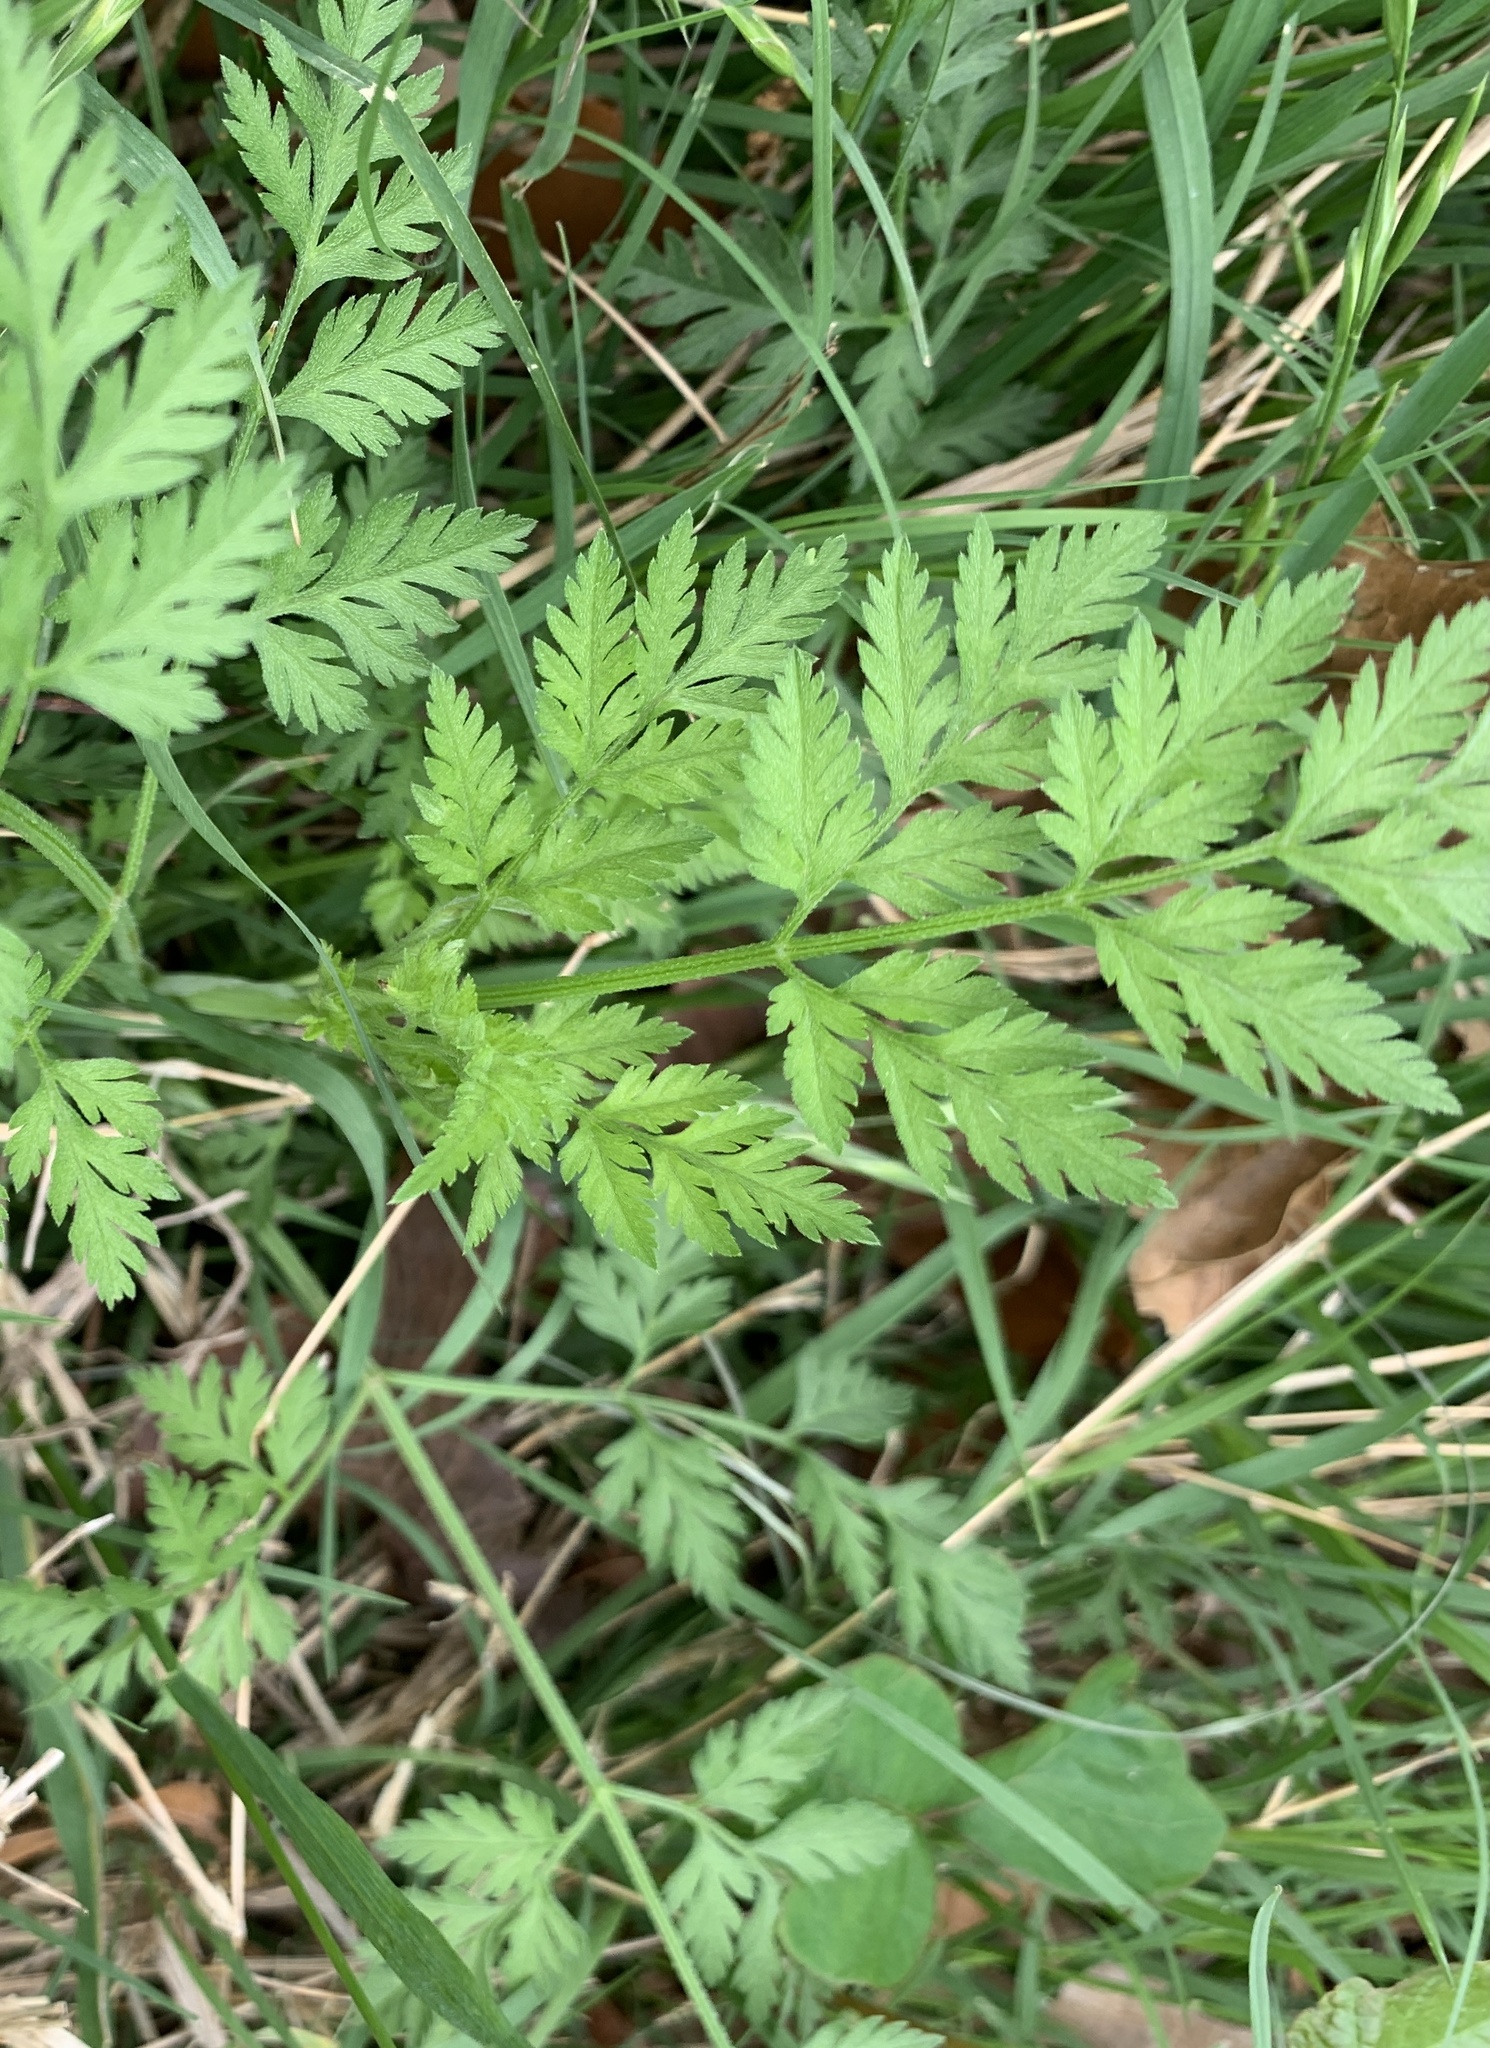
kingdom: Plantae
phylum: Tracheophyta
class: Magnoliopsida
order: Apiales
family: Apiaceae
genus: Torilis
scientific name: Torilis arvensis
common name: Spreading hedge-parsley
